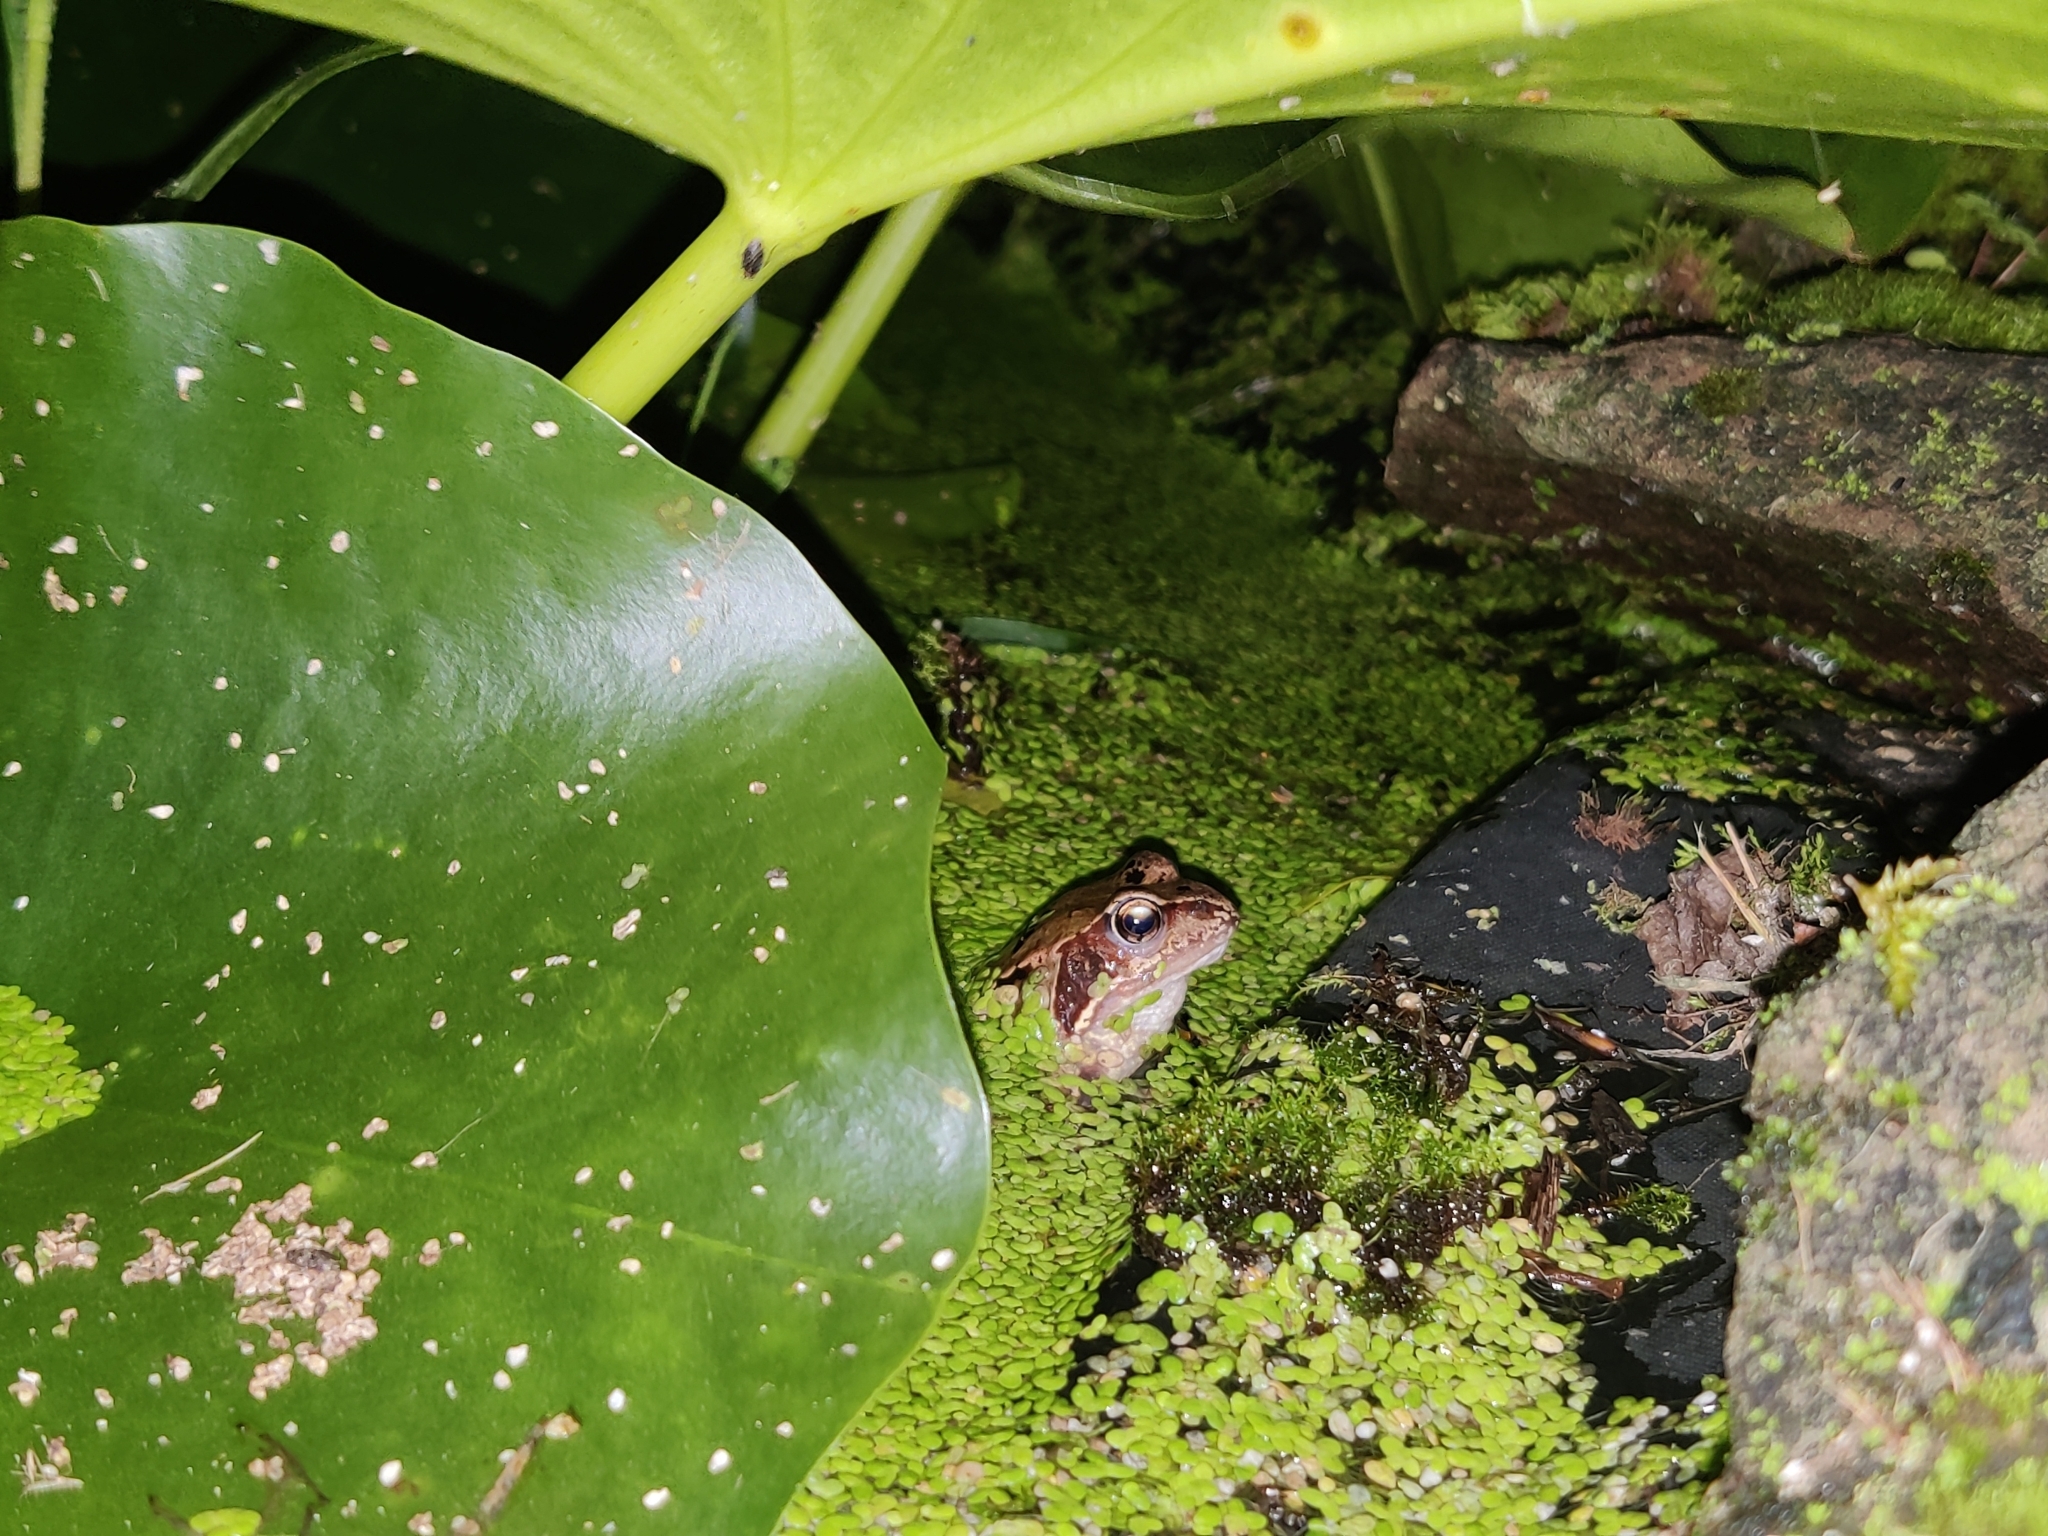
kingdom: Animalia
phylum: Chordata
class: Amphibia
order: Anura
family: Ranidae
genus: Rana
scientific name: Rana temporaria
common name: Common frog
